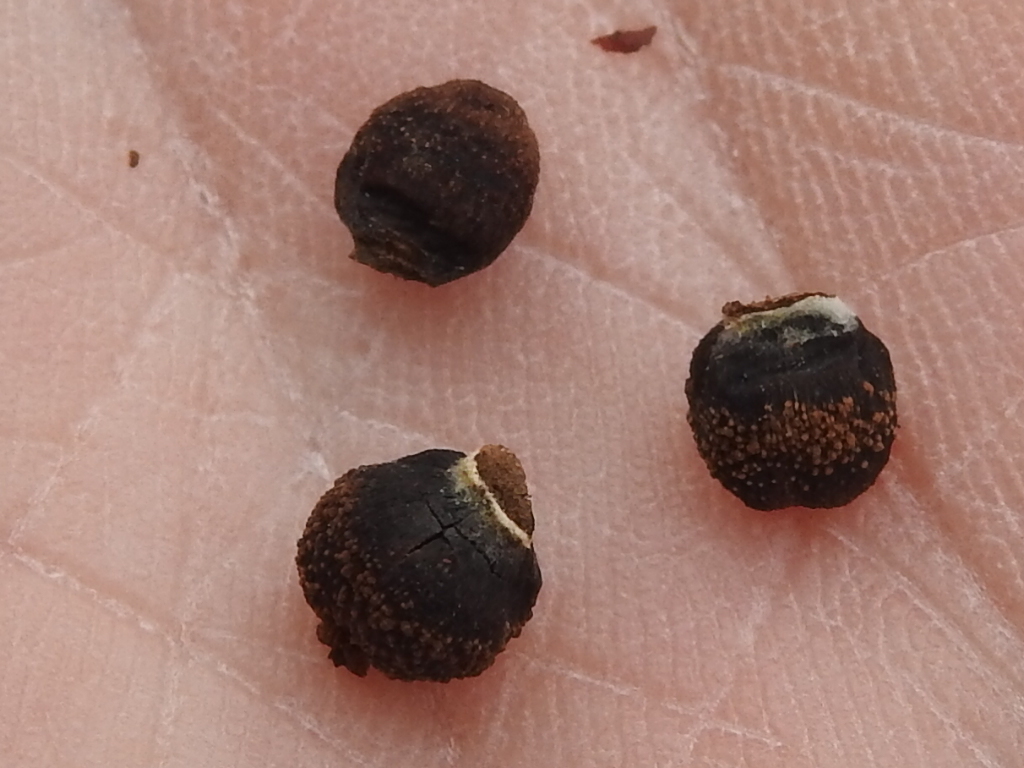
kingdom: Animalia
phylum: Arthropoda
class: Insecta
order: Hymenoptera
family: Cynipidae
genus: Kokkocynips
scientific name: Kokkocynips imbricariae
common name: Banded bullet gall wasp
